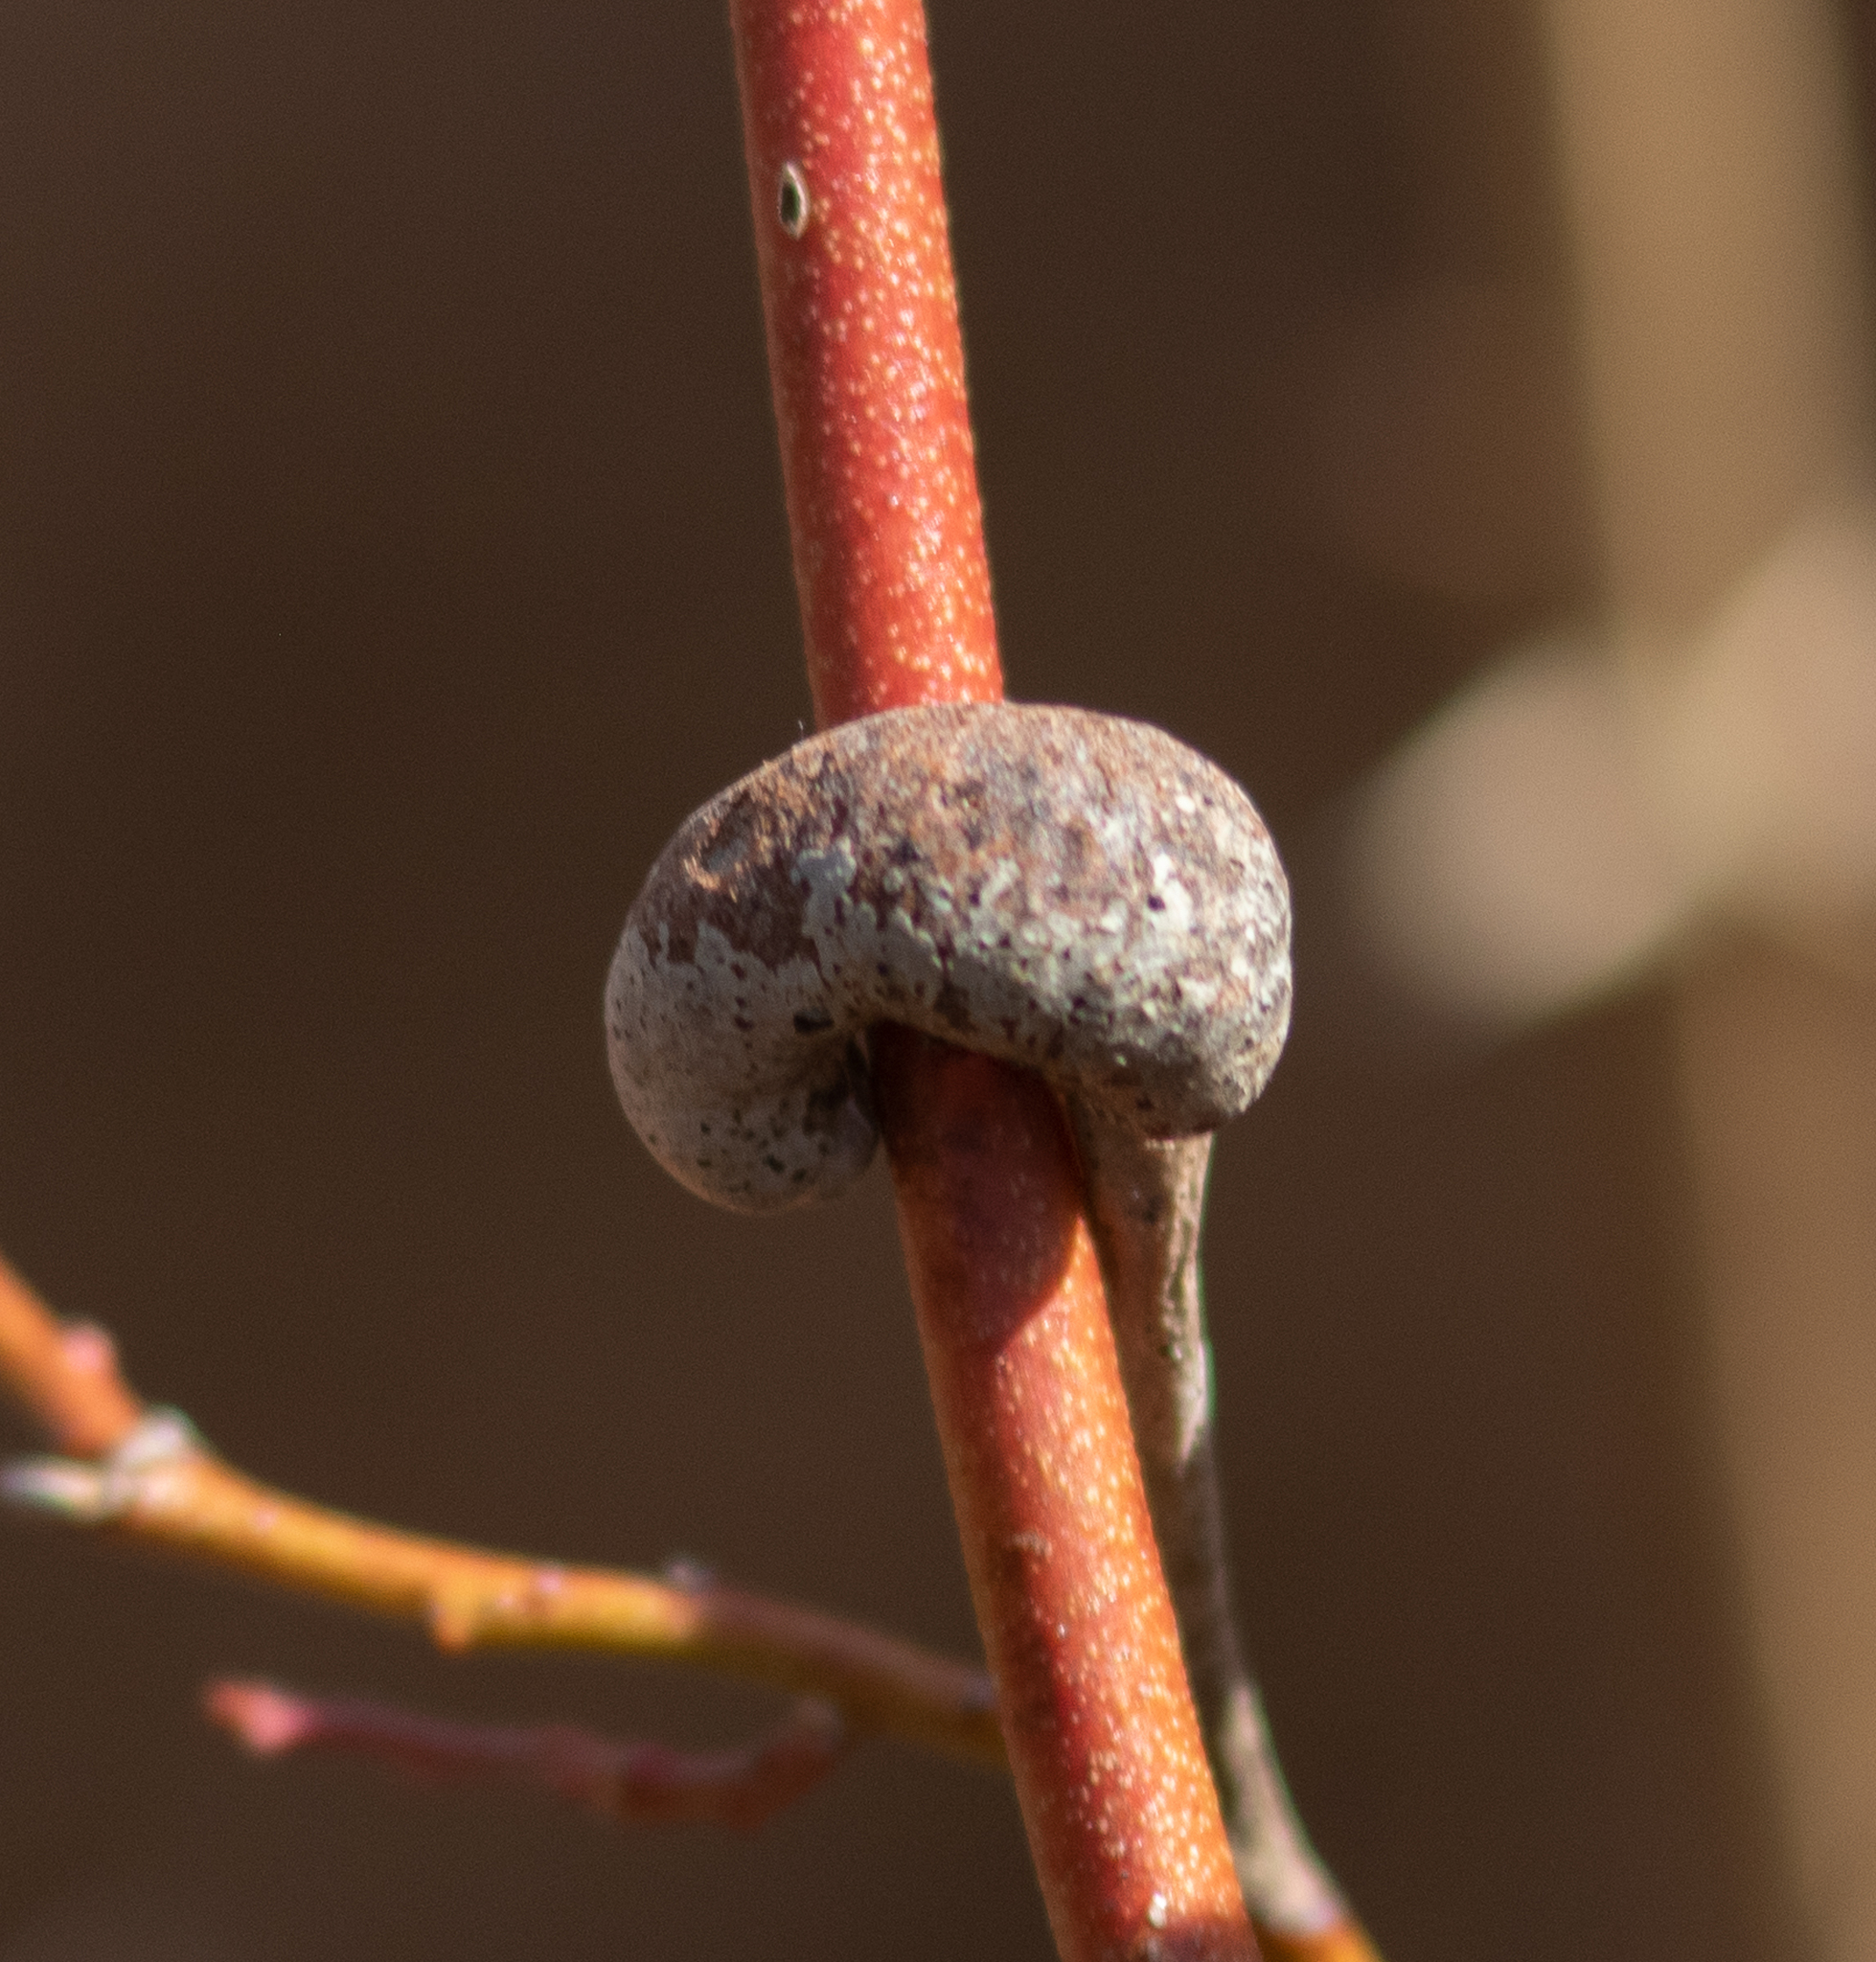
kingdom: Animalia
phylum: Arthropoda
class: Insecta
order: Hymenoptera
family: Pteromalidae
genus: Hemadas
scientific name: Hemadas nubilipennis
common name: Blueberry stem gall wasp
